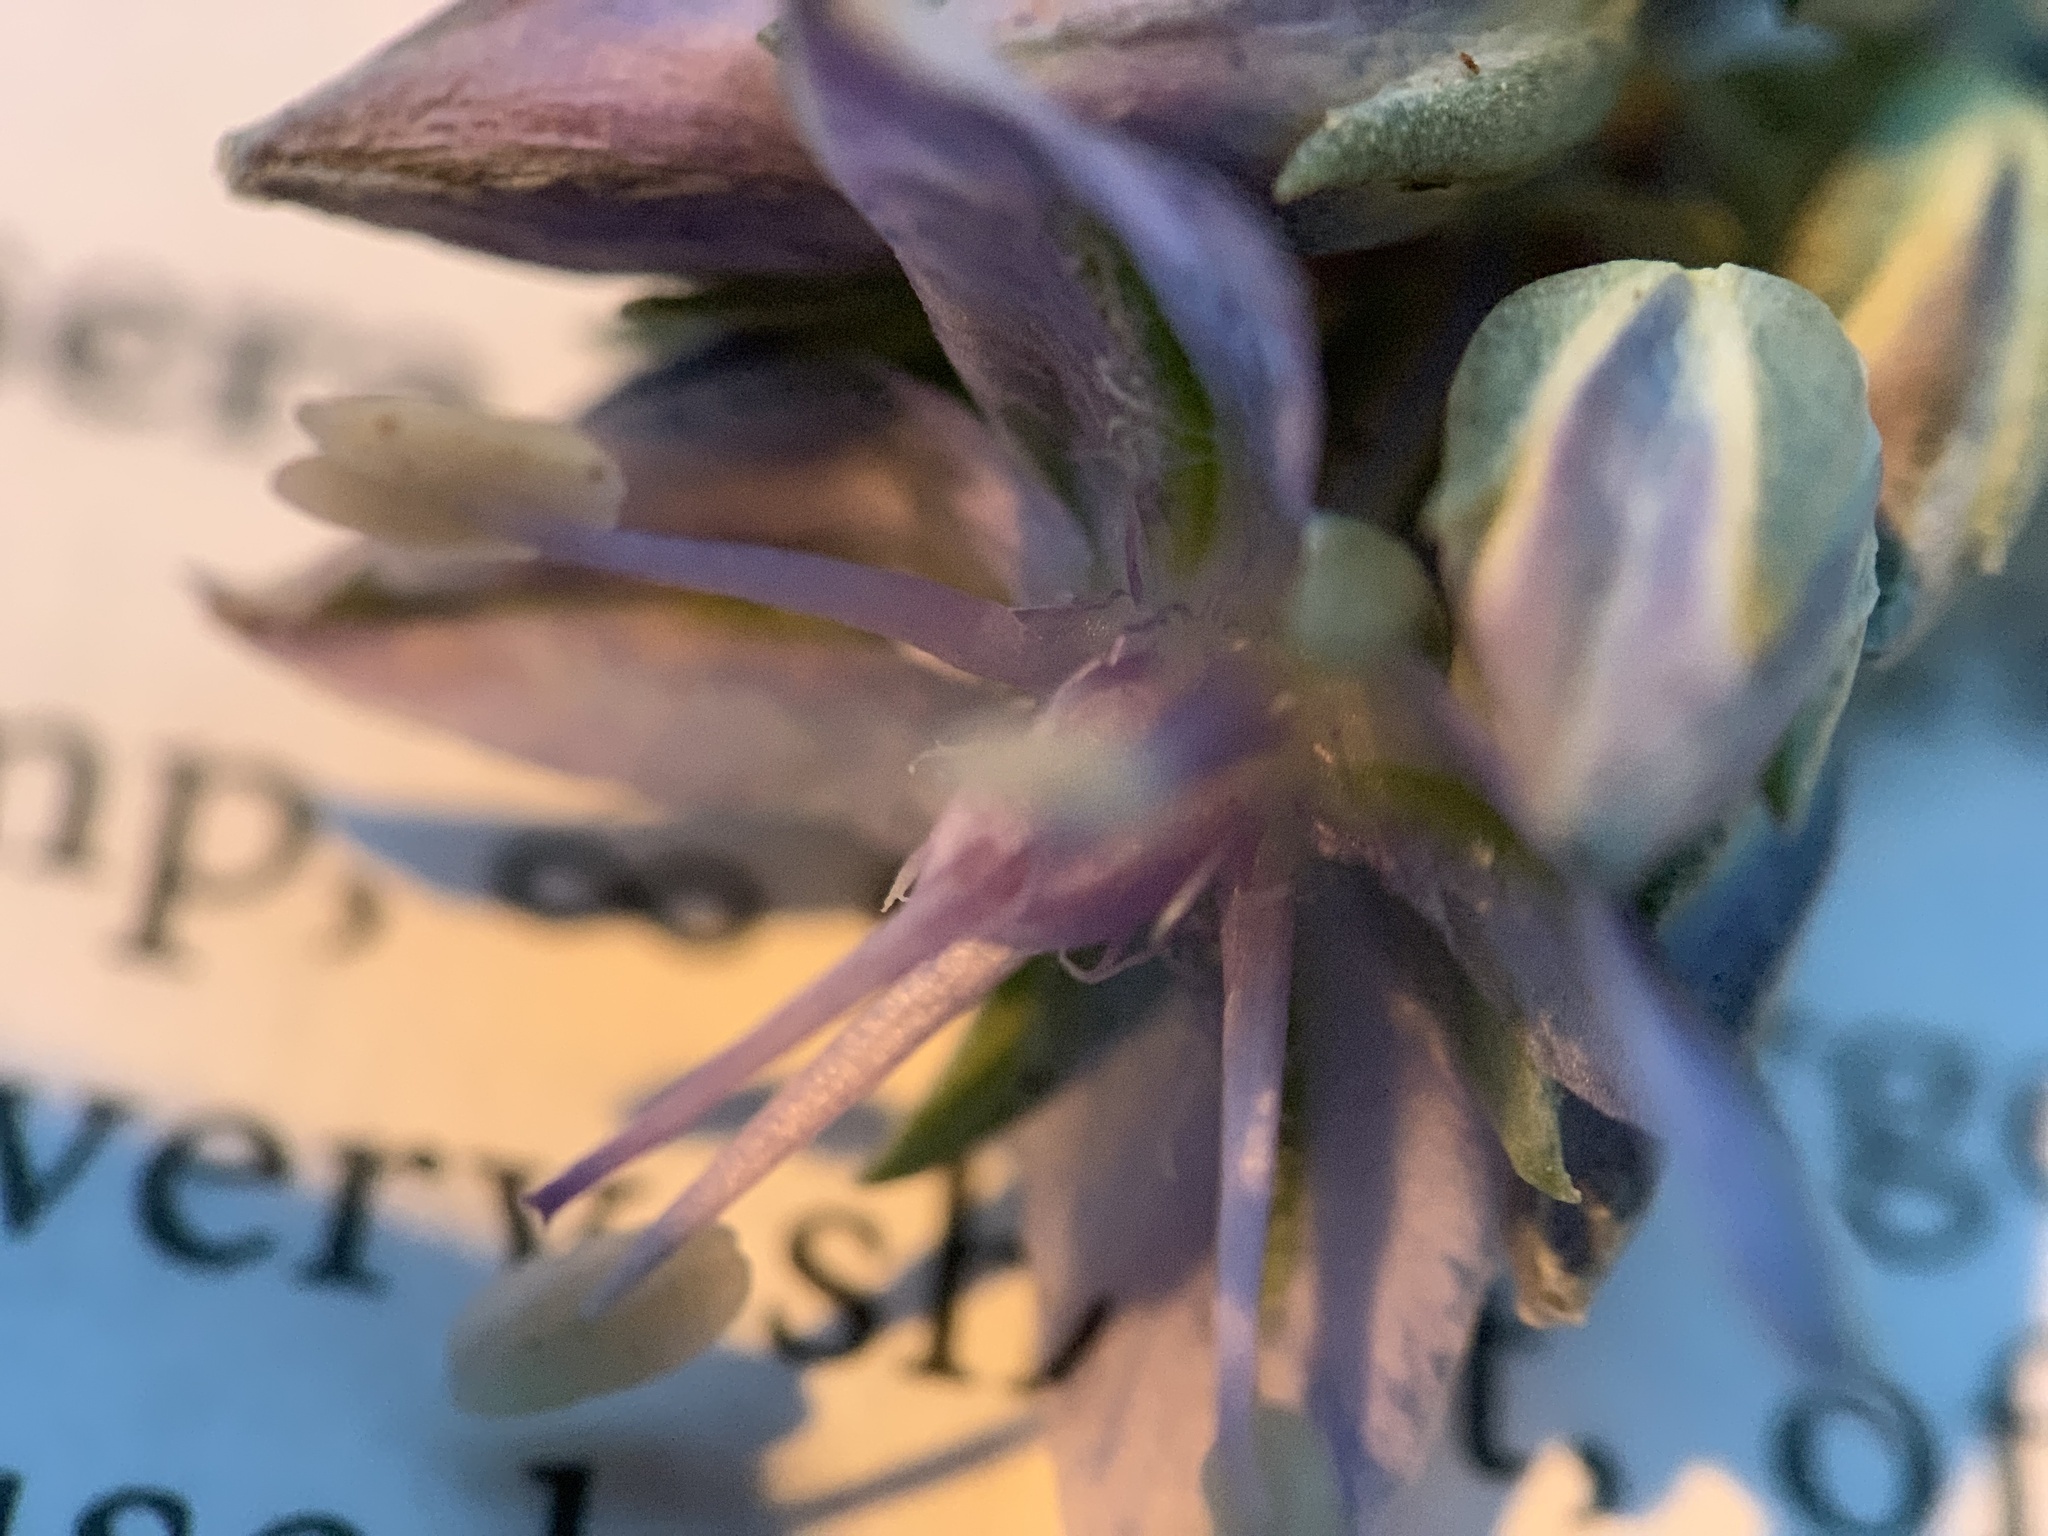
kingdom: Plantae
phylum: Tracheophyta
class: Magnoliopsida
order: Gentianales
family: Gentianaceae
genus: Frasera
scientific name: Frasera albicaulis
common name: Cusick's frasera
